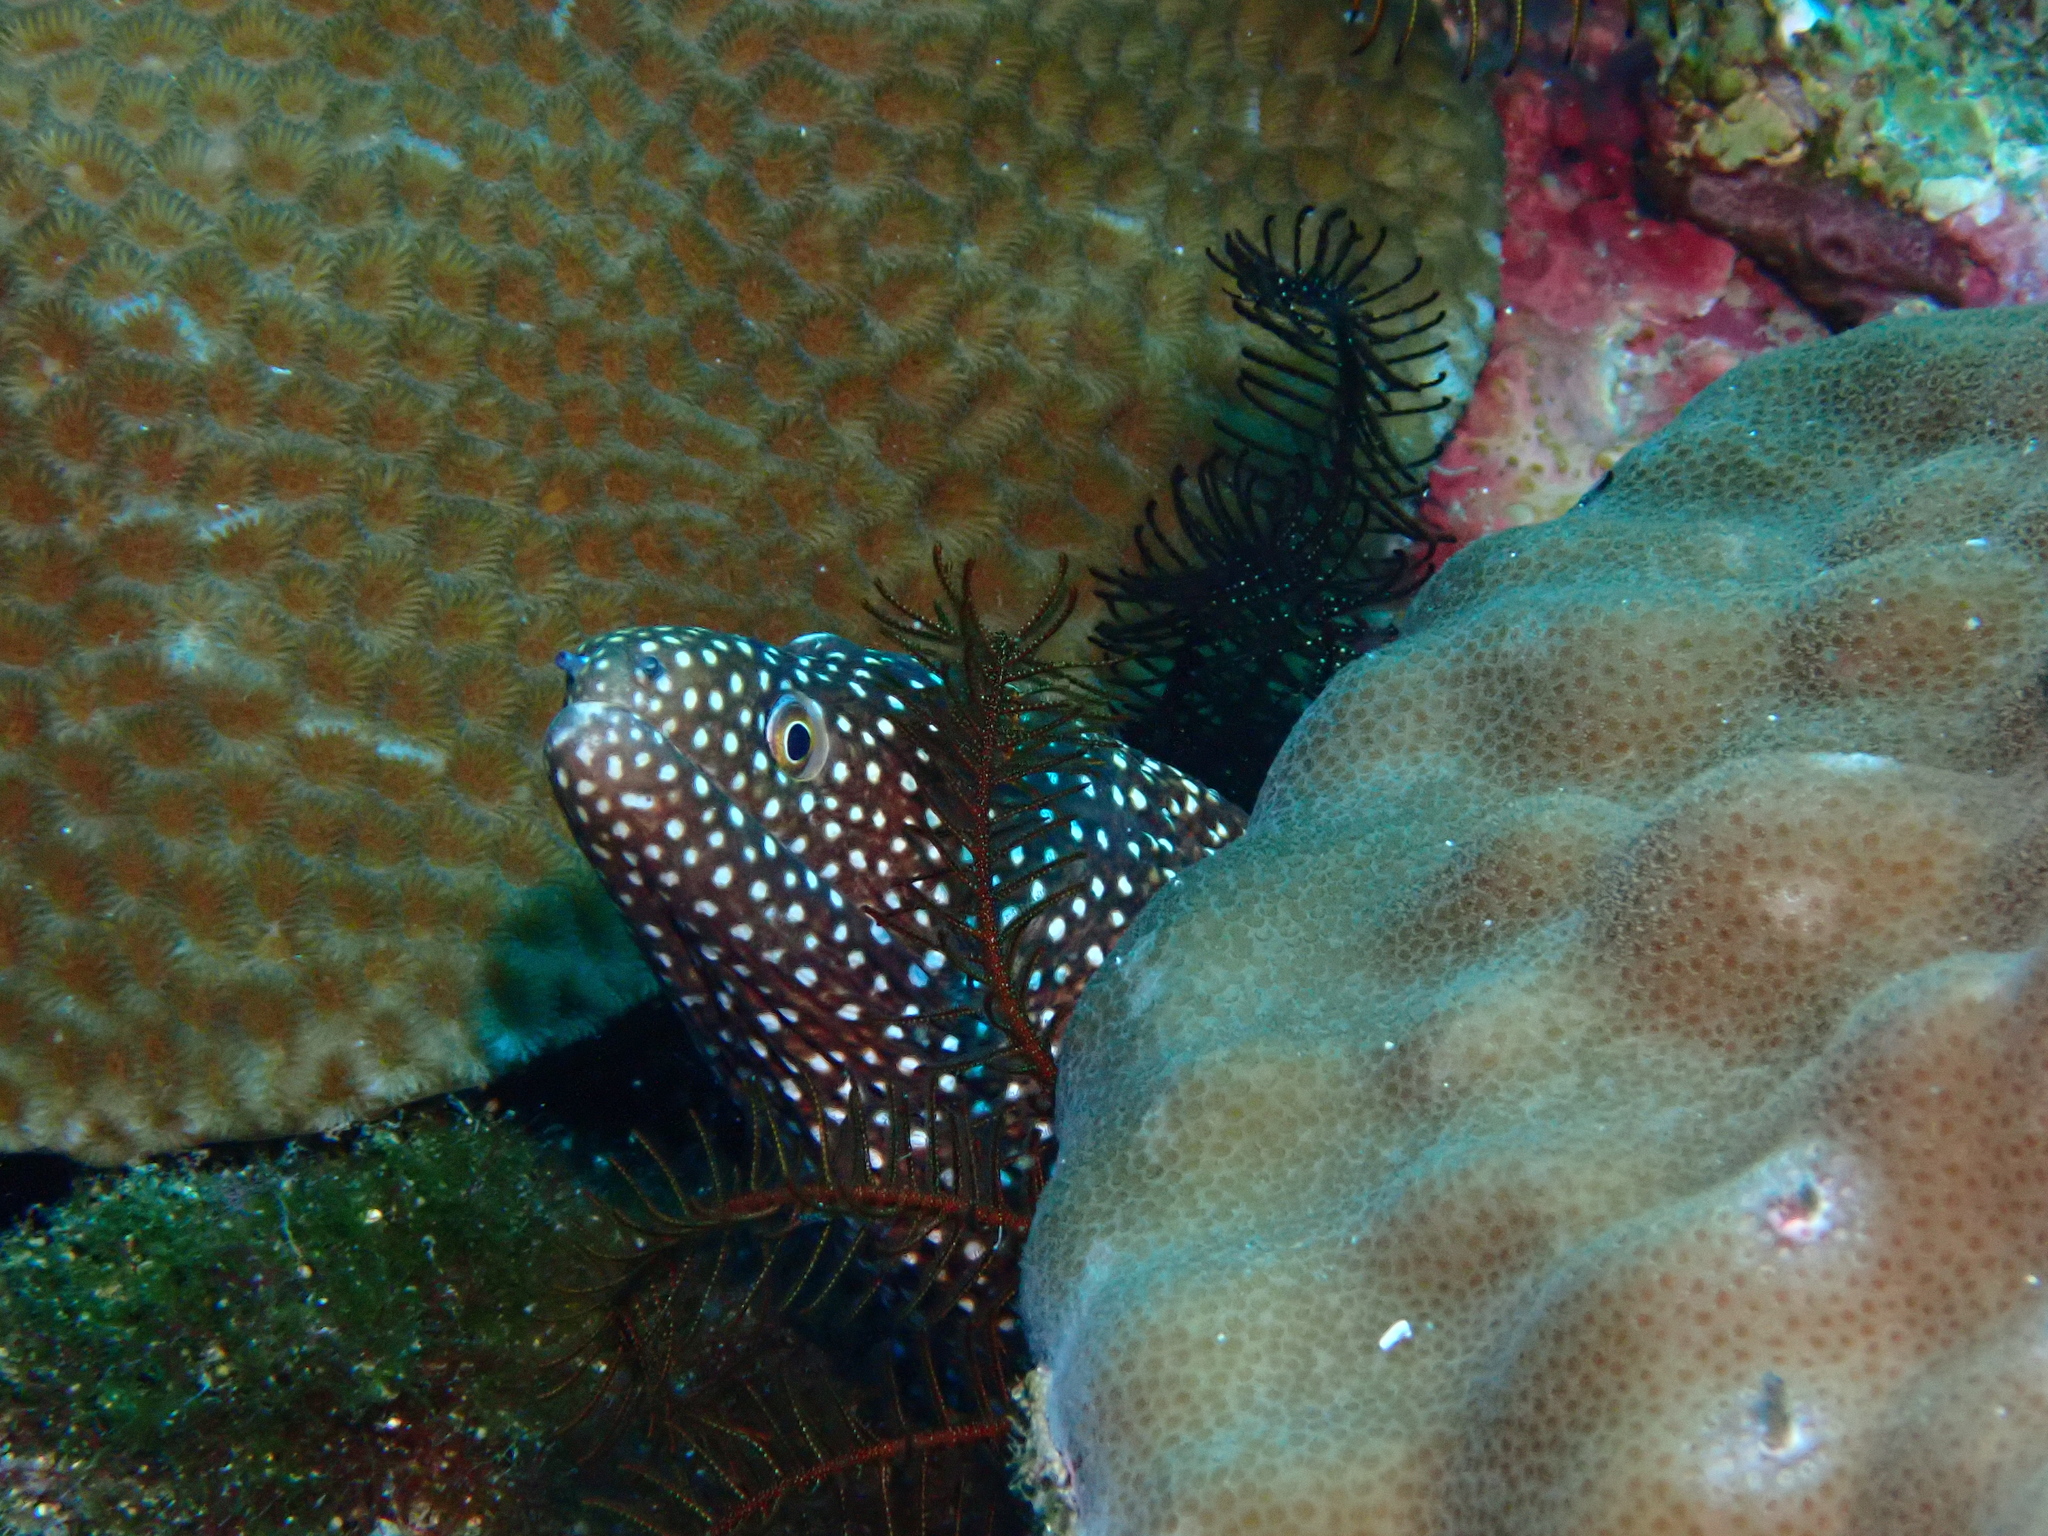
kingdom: Animalia
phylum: Chordata
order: Anguilliformes
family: Muraenidae
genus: Gymnothorax
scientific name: Gymnothorax meleagris
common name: Guineafowl moray
